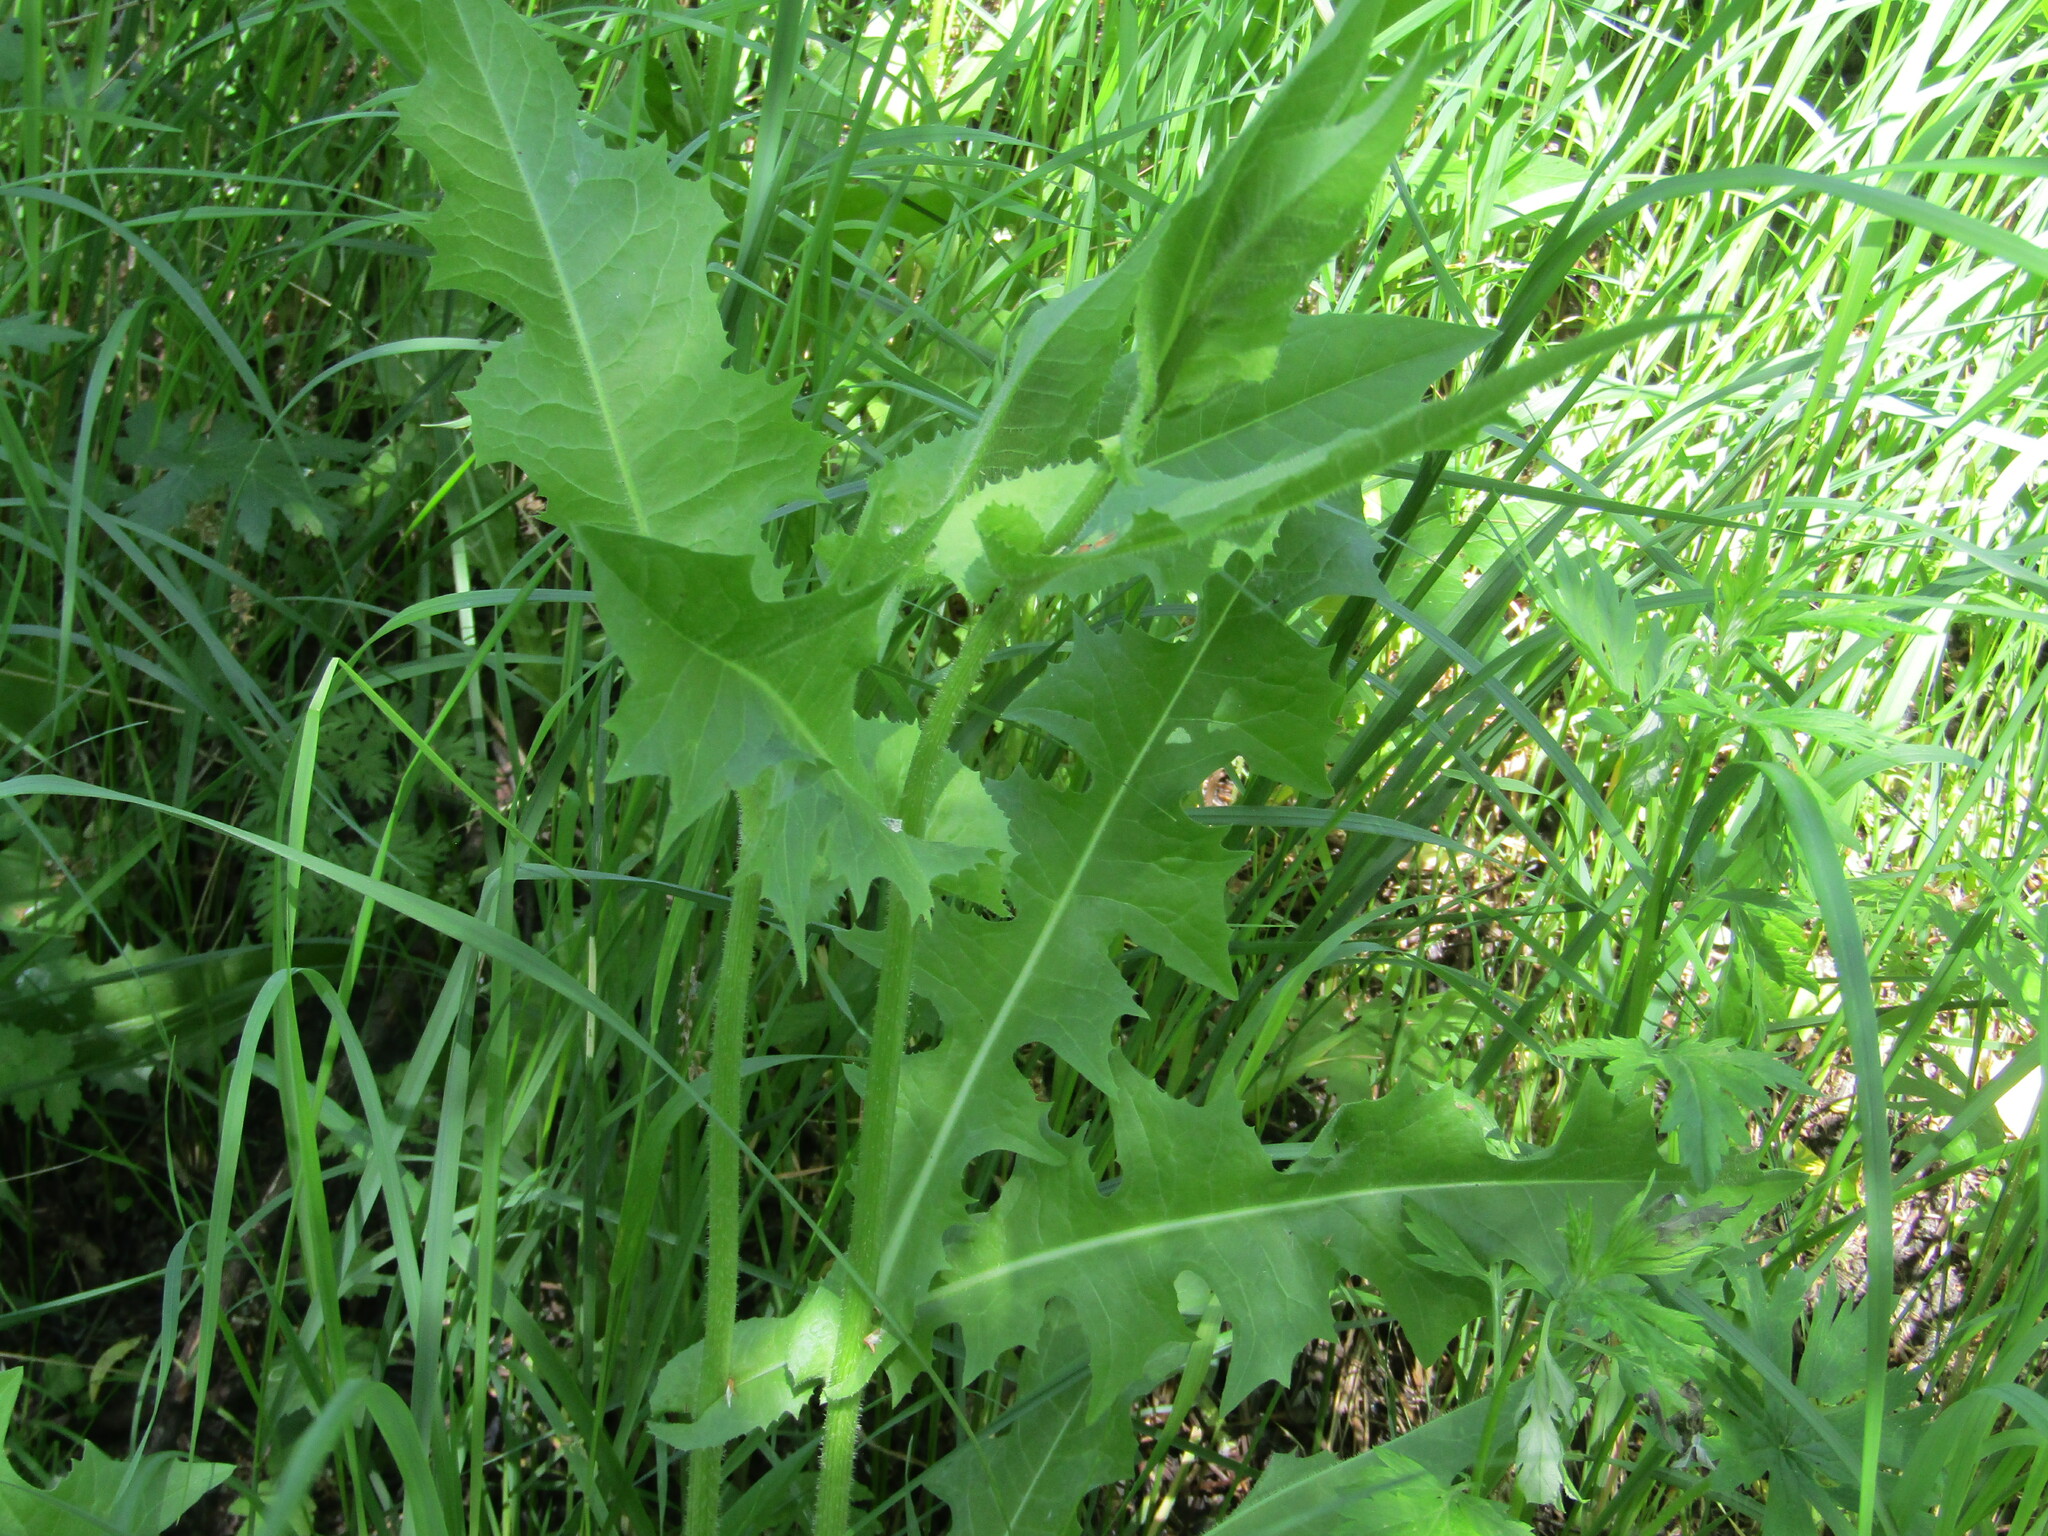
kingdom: Plantae
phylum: Tracheophyta
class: Magnoliopsida
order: Asterales
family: Asteraceae
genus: Cichorium
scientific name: Cichorium intybus
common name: Chicory
